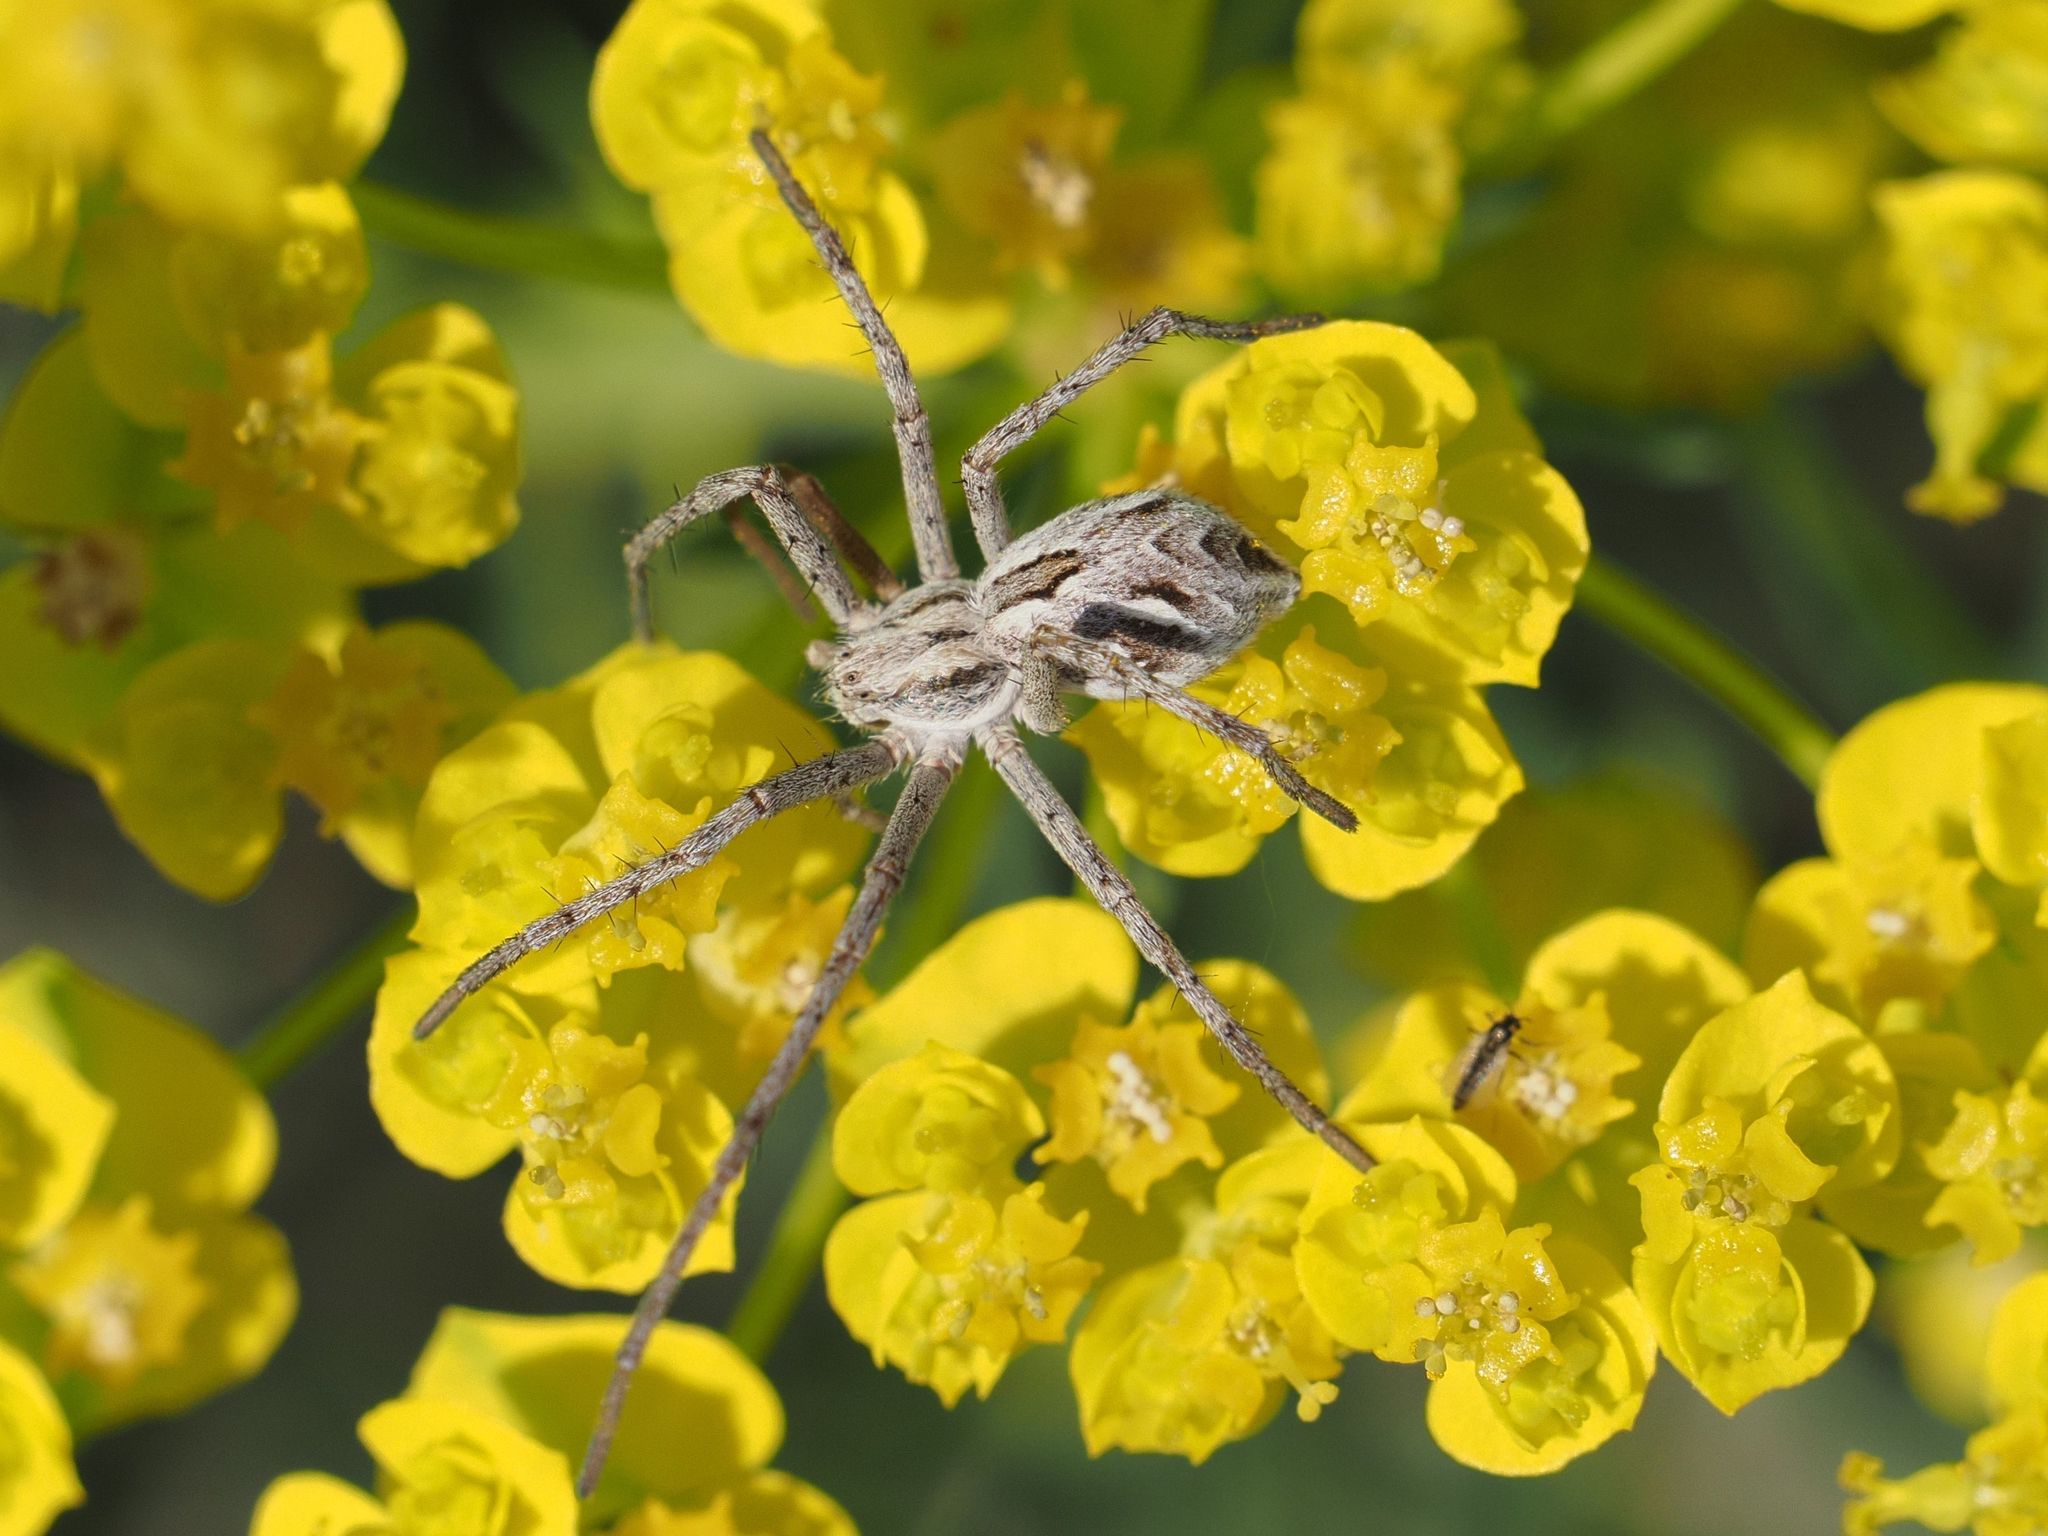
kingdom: Animalia
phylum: Arthropoda
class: Arachnida
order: Araneae
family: Philodromidae
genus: Rhysodromus
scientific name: Rhysodromus histrio
